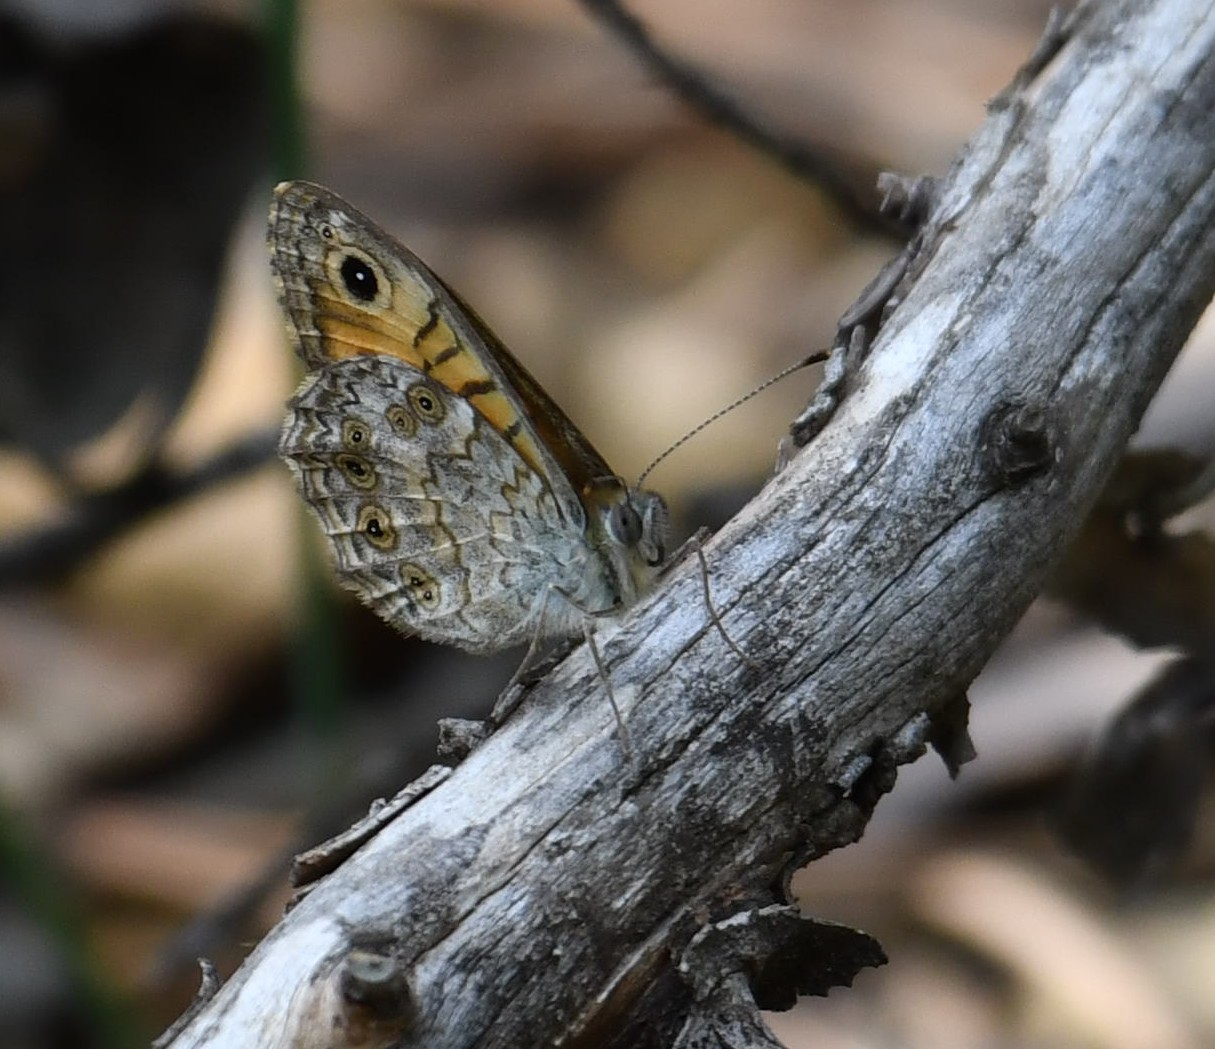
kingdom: Animalia
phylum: Arthropoda
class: Insecta
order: Lepidoptera
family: Nymphalidae
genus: Pararge
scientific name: Pararge Lasiommata megera
